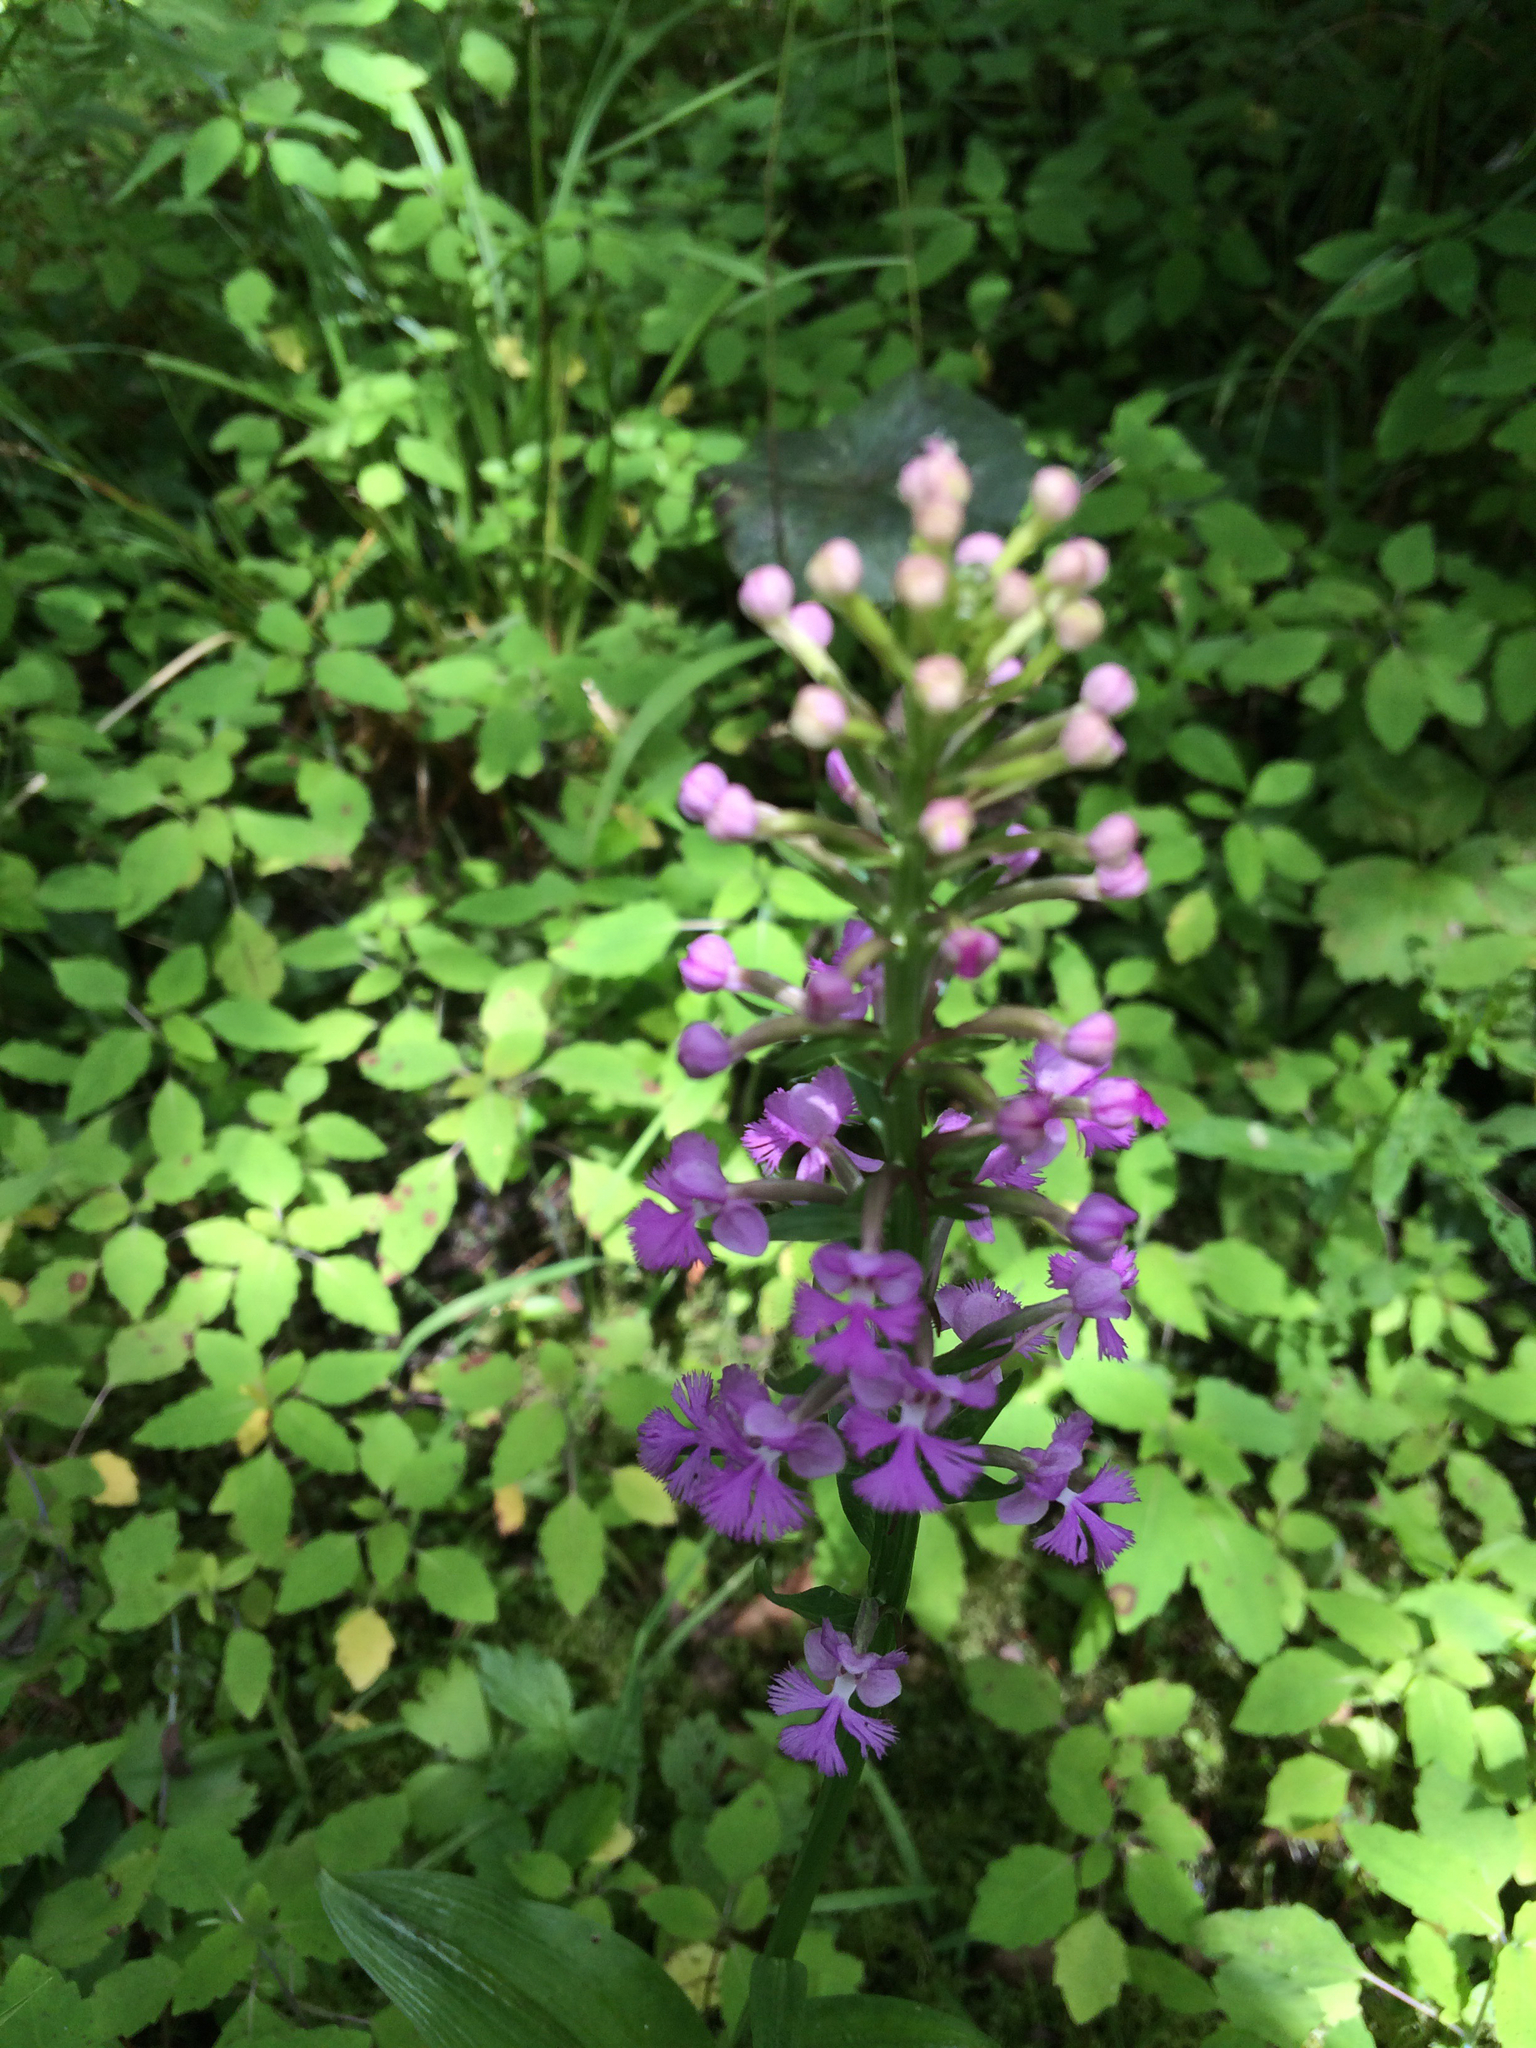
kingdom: Plantae
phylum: Tracheophyta
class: Liliopsida
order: Asparagales
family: Orchidaceae
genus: Platanthera
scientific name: Platanthera psycodes
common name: Lesser purple fringed orchid
